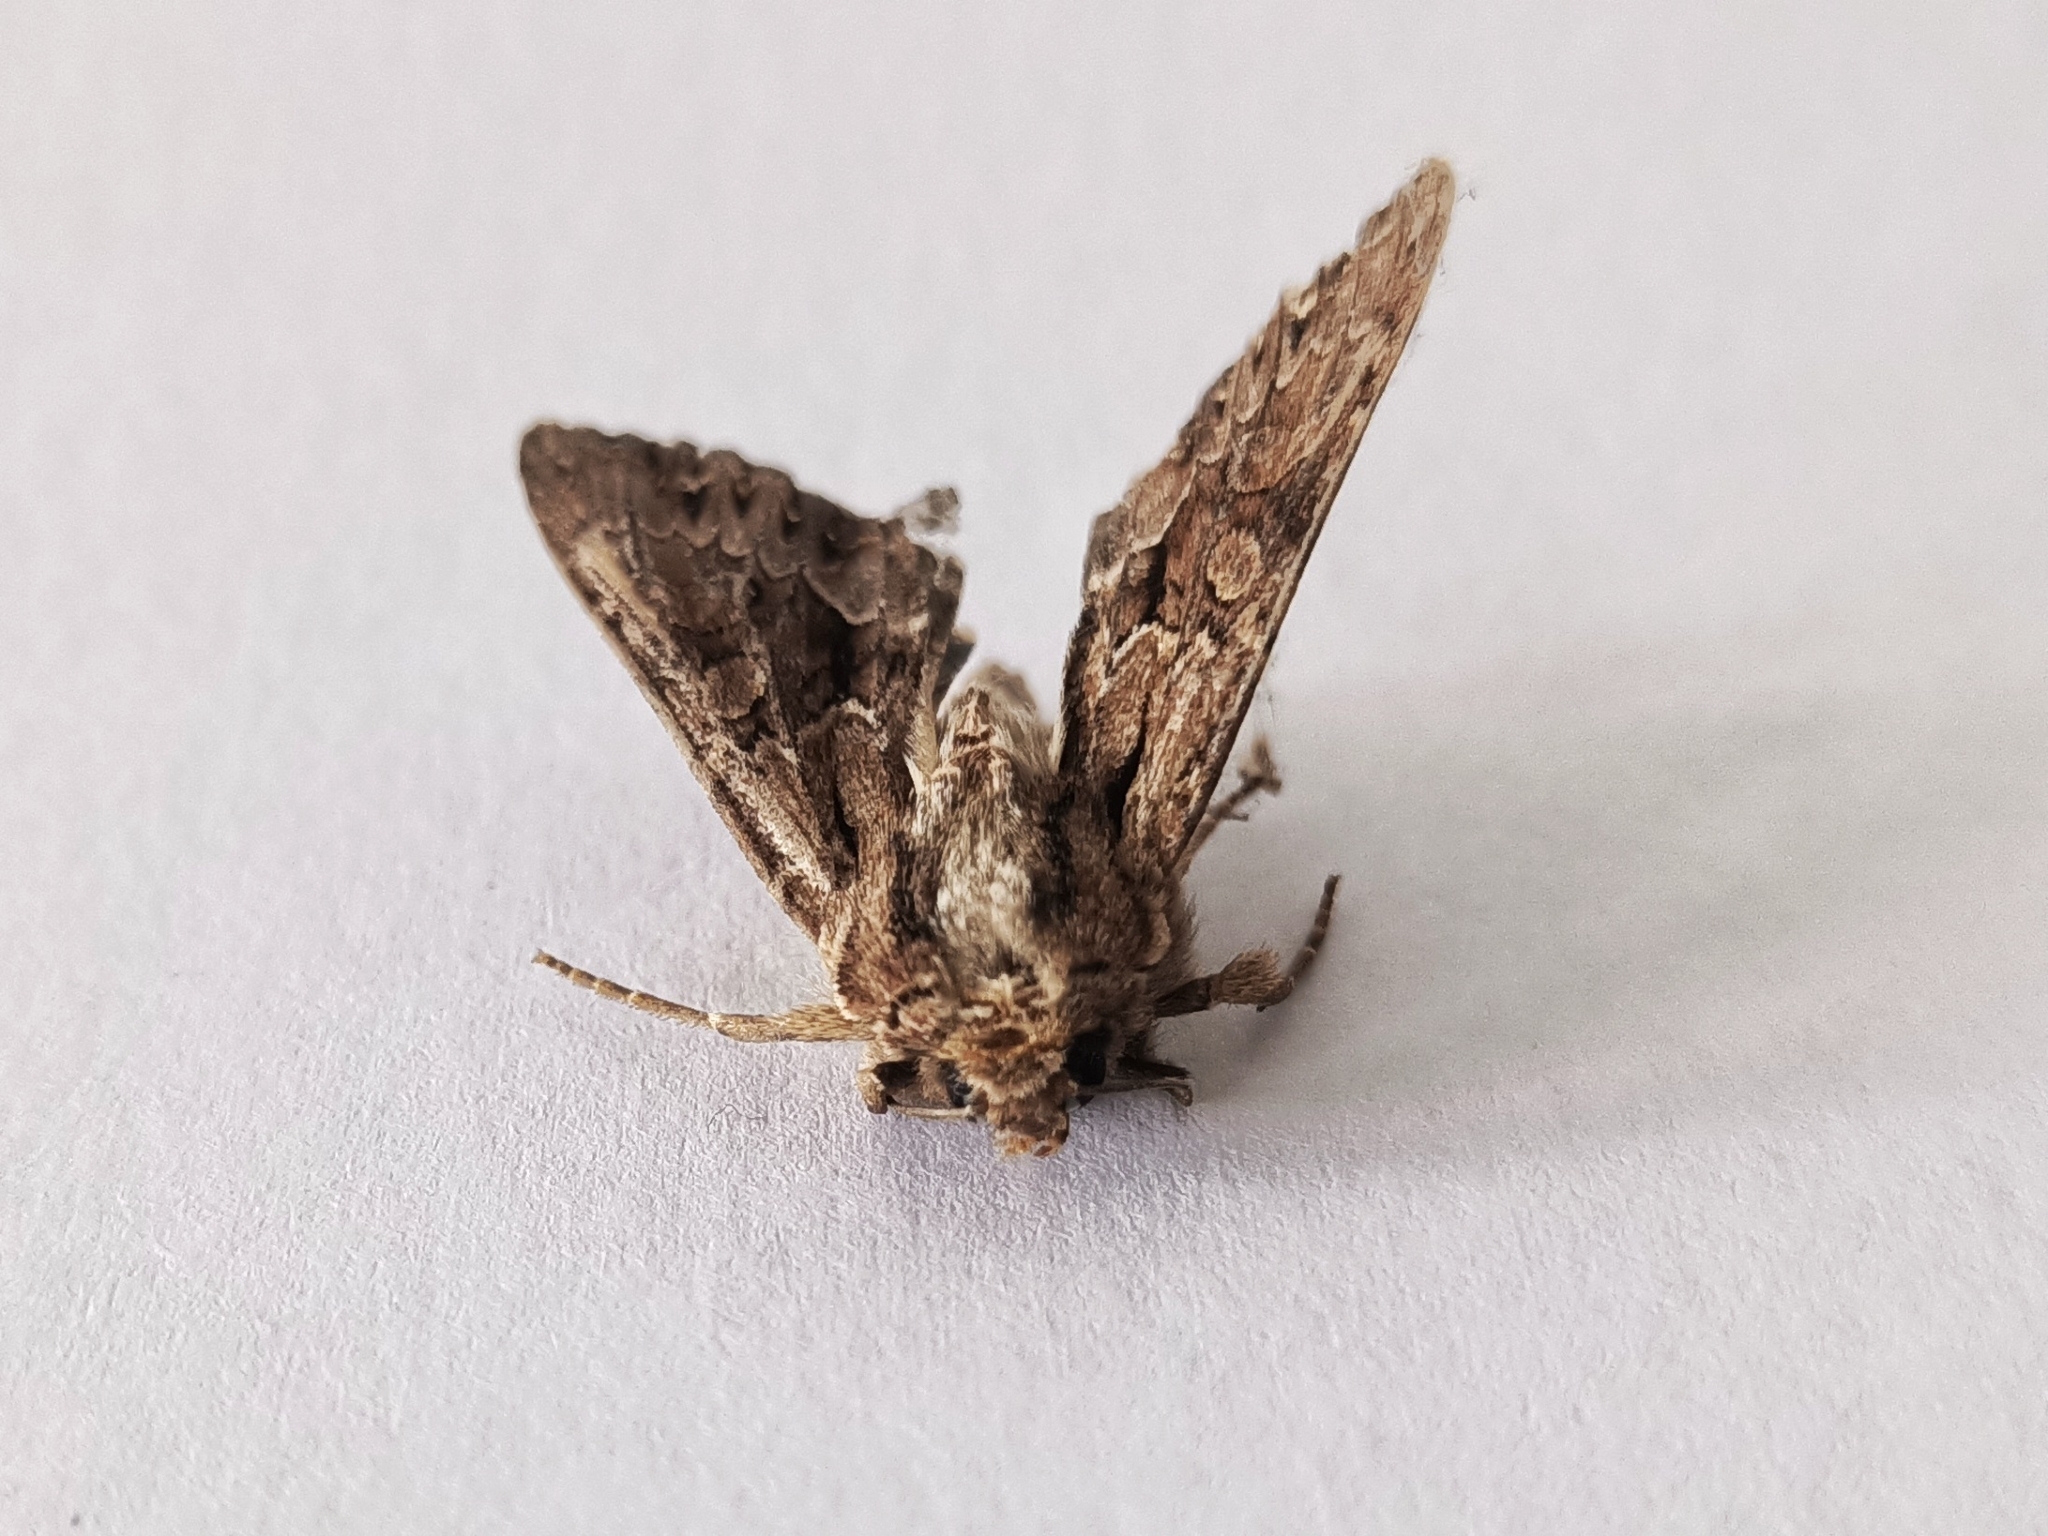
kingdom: Animalia
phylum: Arthropoda
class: Insecta
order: Lepidoptera
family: Noctuidae
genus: Apamea
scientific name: Apamea monoglypha
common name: Dark arches
